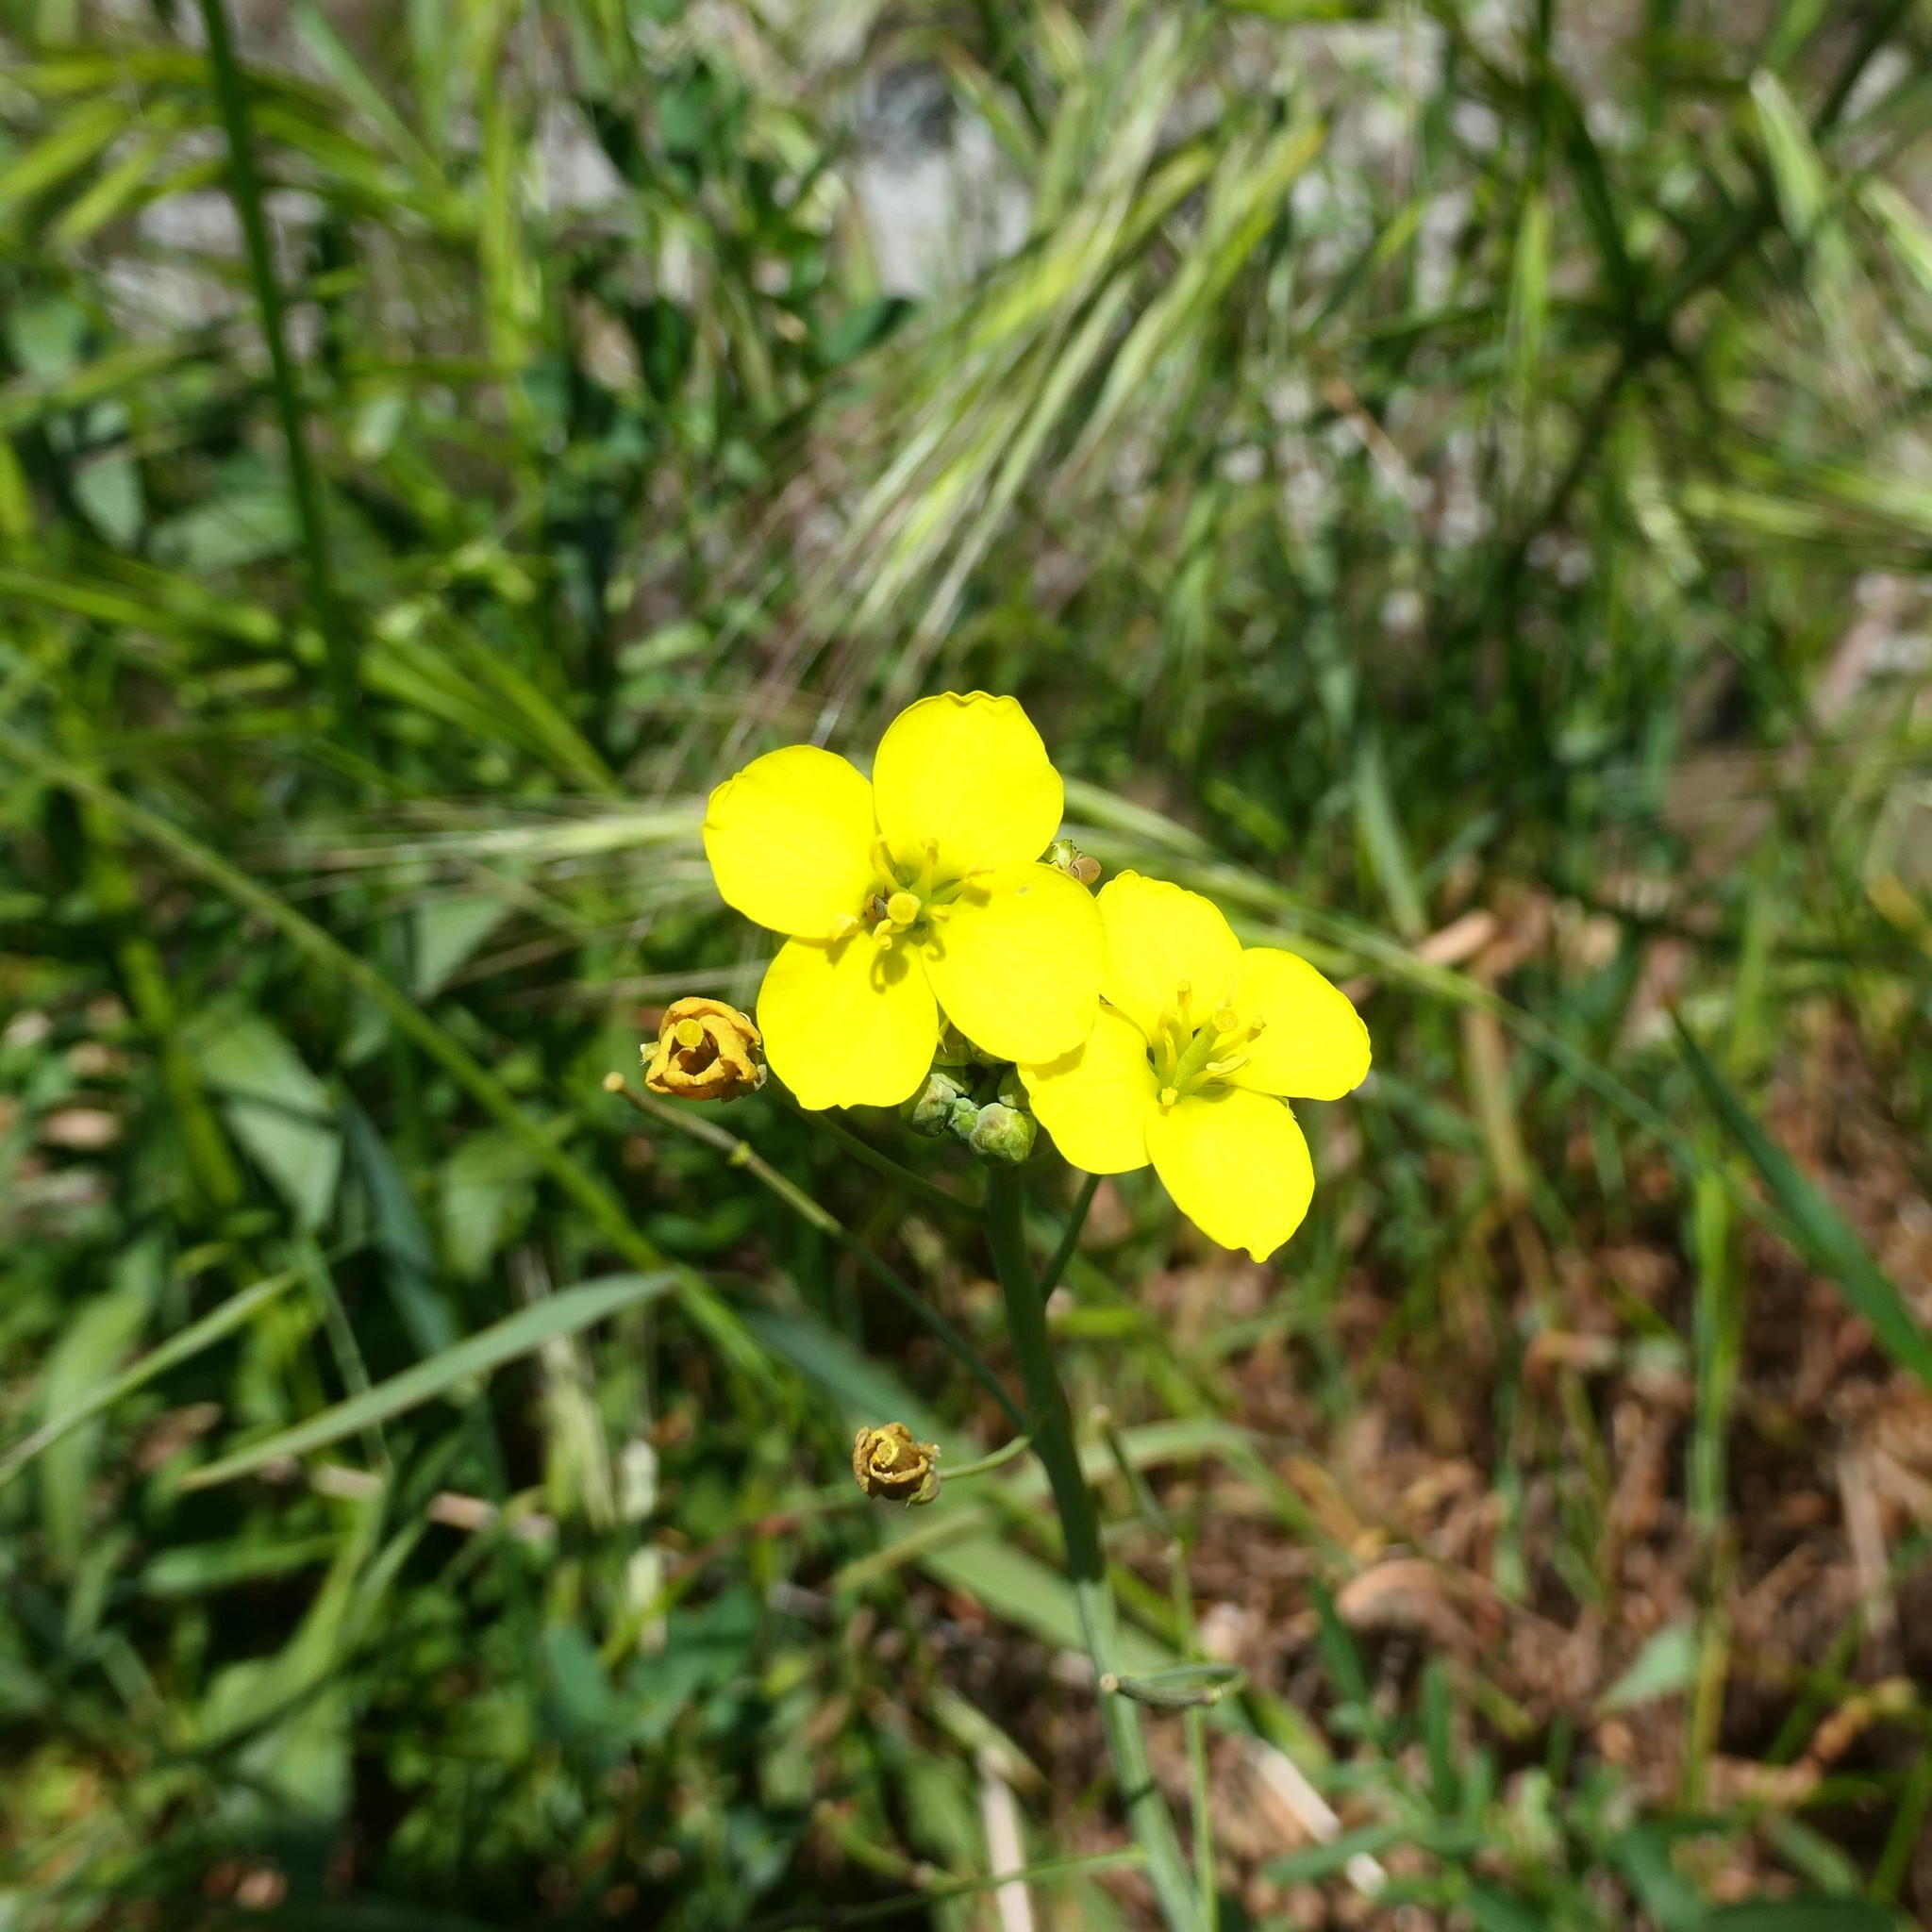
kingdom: Plantae
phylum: Tracheophyta
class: Magnoliopsida
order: Brassicales
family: Brassicaceae
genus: Diplotaxis
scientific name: Diplotaxis tenuifolia
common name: Perennial wall-rocket
